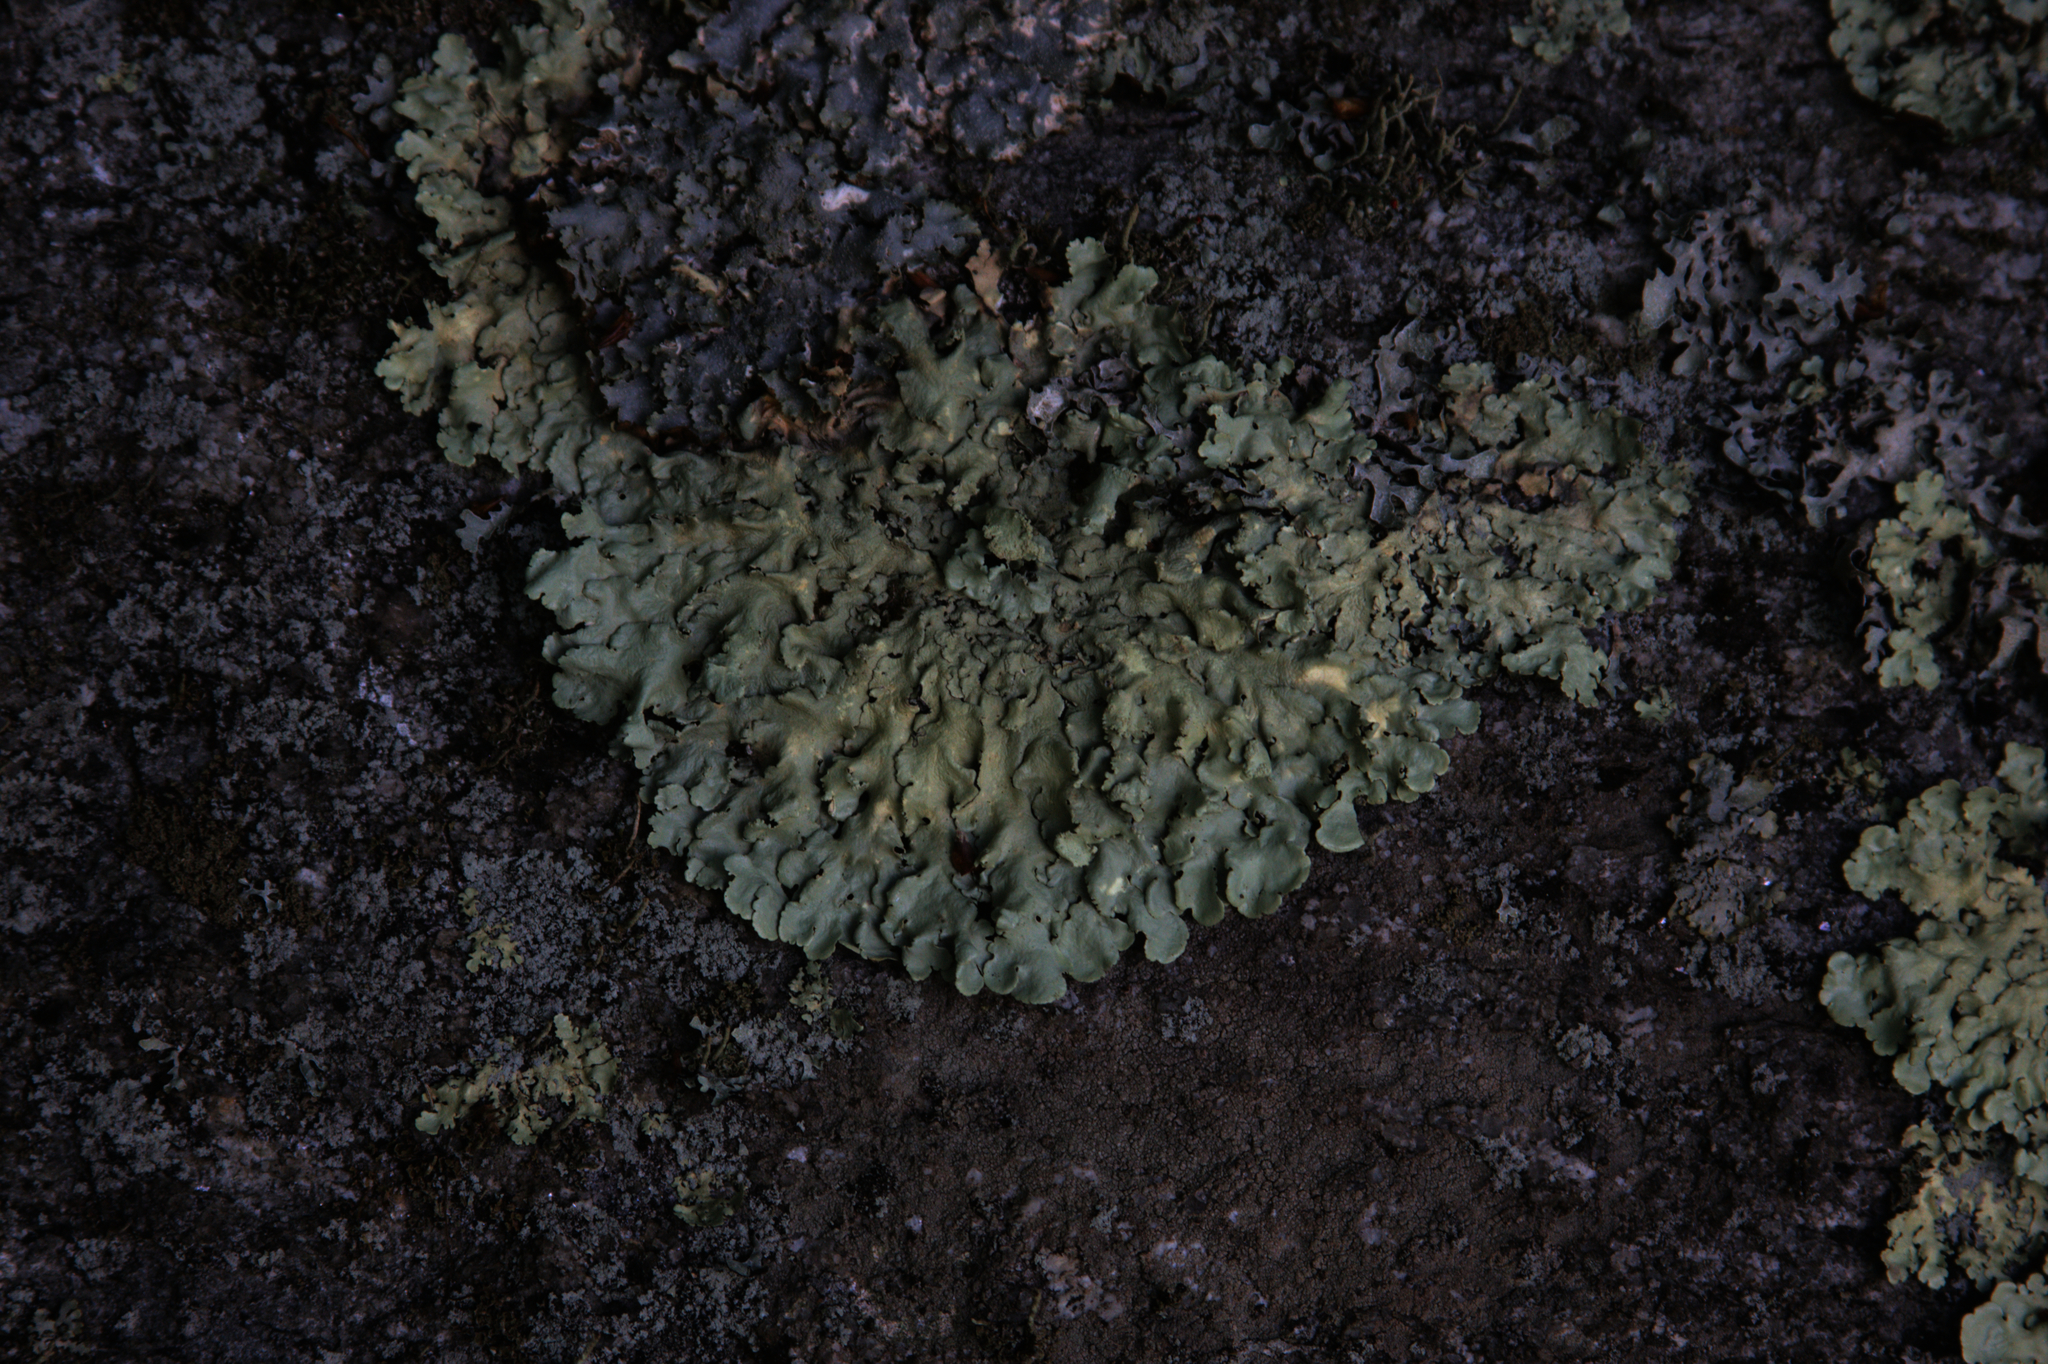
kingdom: Fungi
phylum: Ascomycota
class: Lecanoromycetes
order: Lecanorales
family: Parmeliaceae
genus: Flavoparmelia
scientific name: Flavoparmelia caperata
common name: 40-mile per hour lichen
